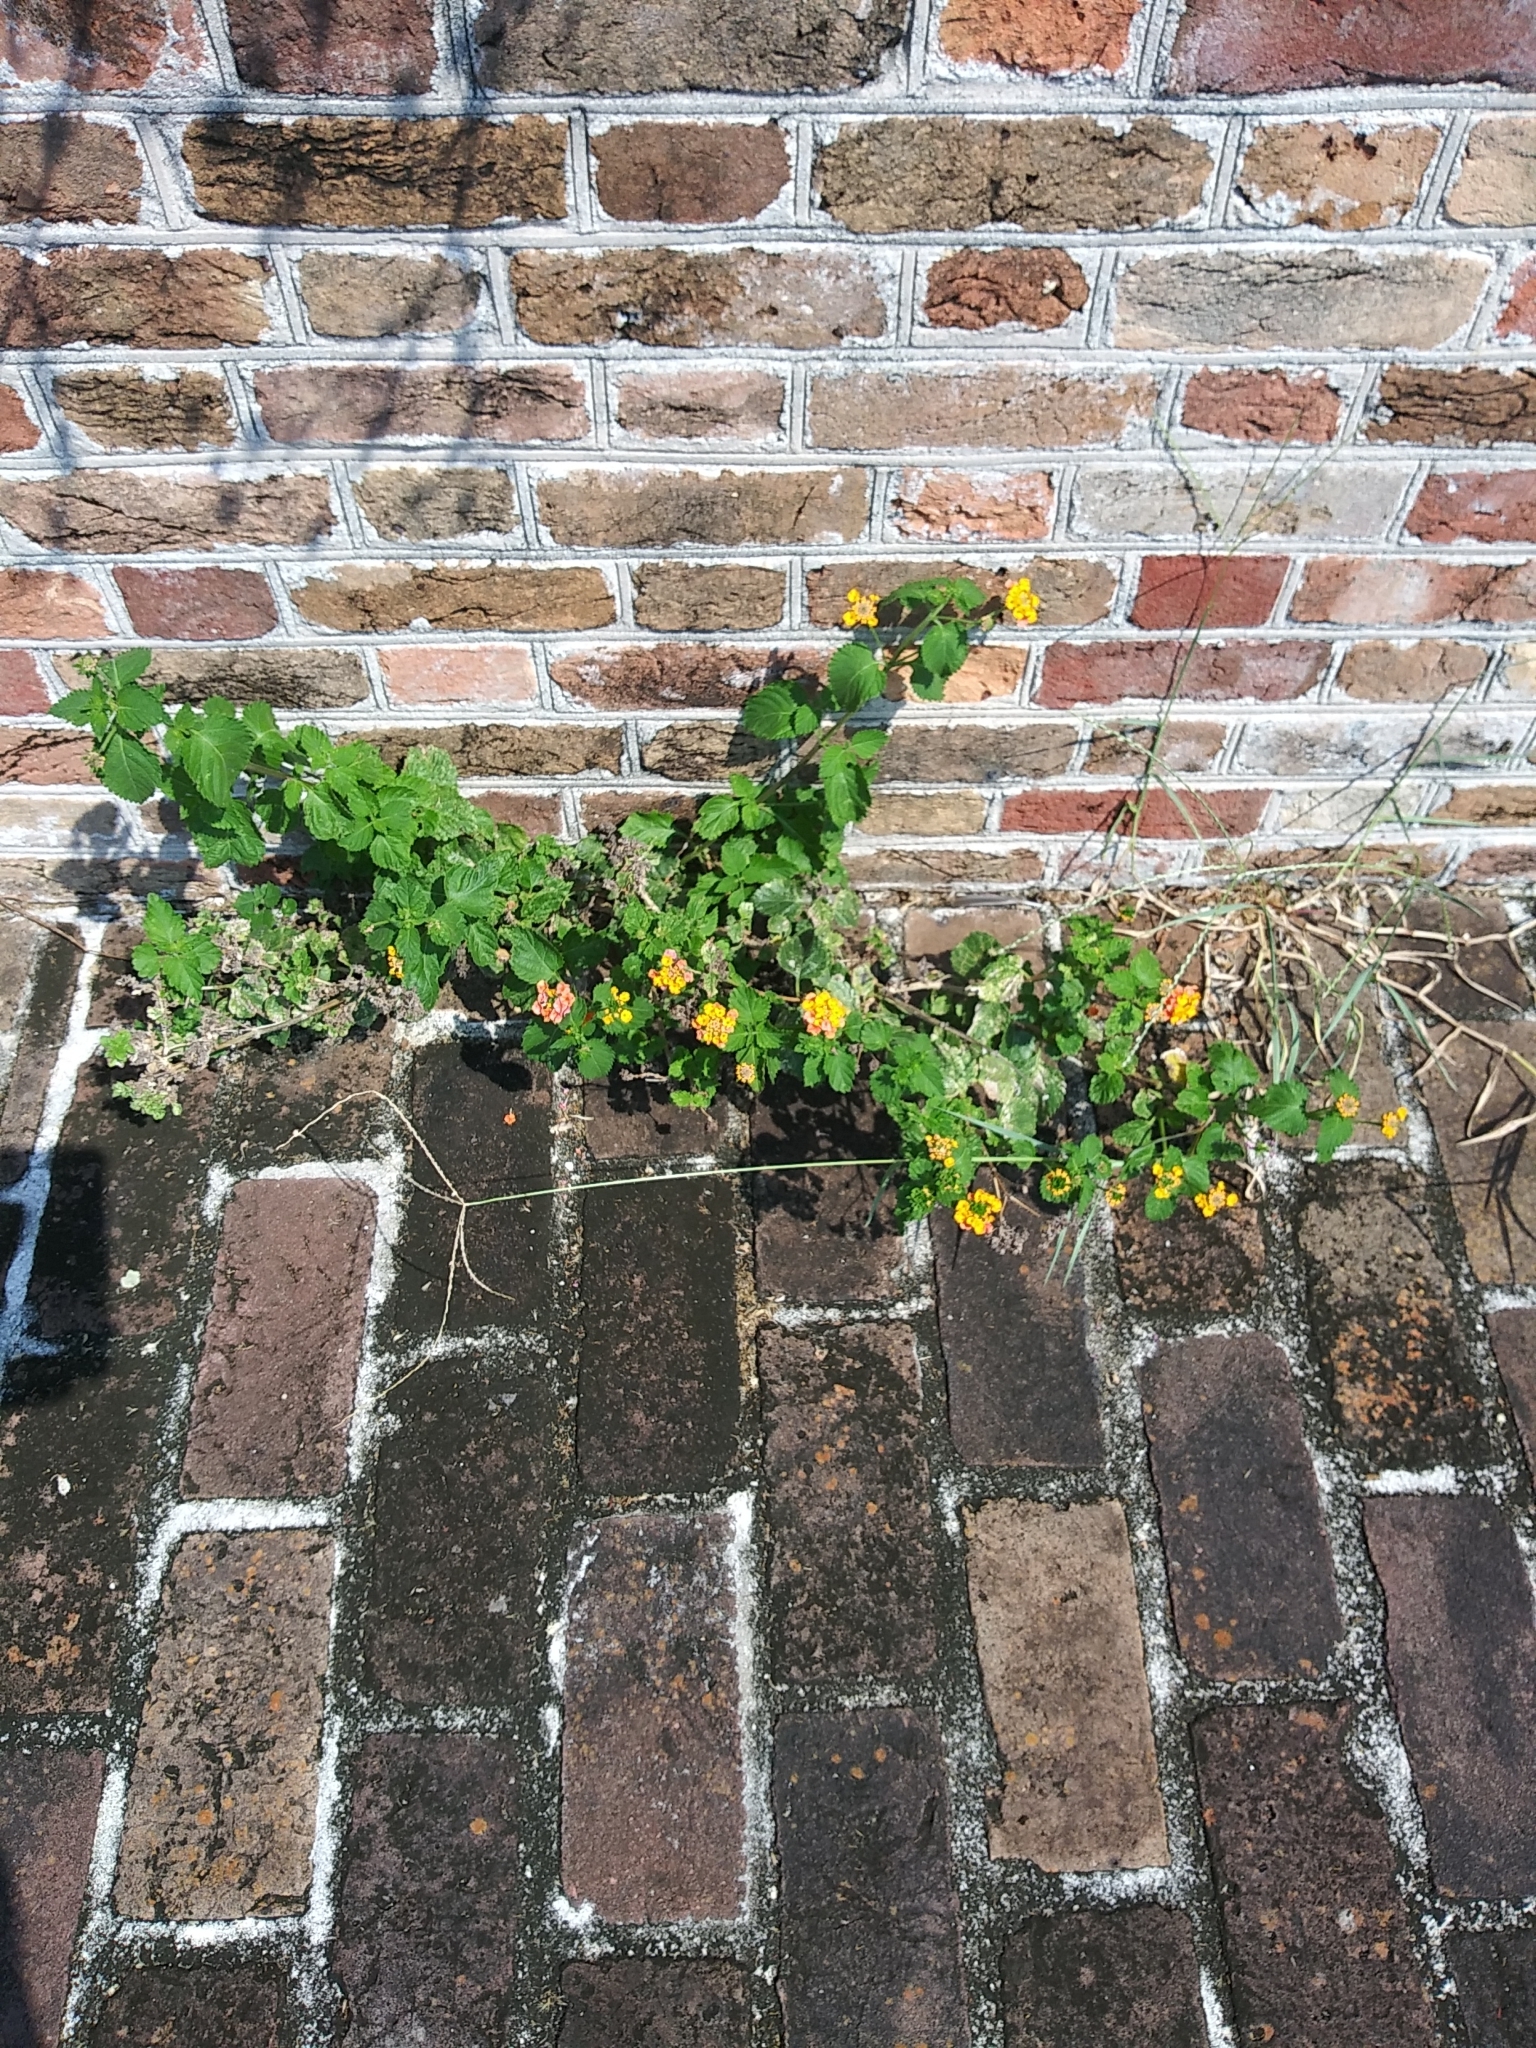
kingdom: Plantae
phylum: Tracheophyta
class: Magnoliopsida
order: Lamiales
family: Verbenaceae
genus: Lantana
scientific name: Lantana camara
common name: Lantana
